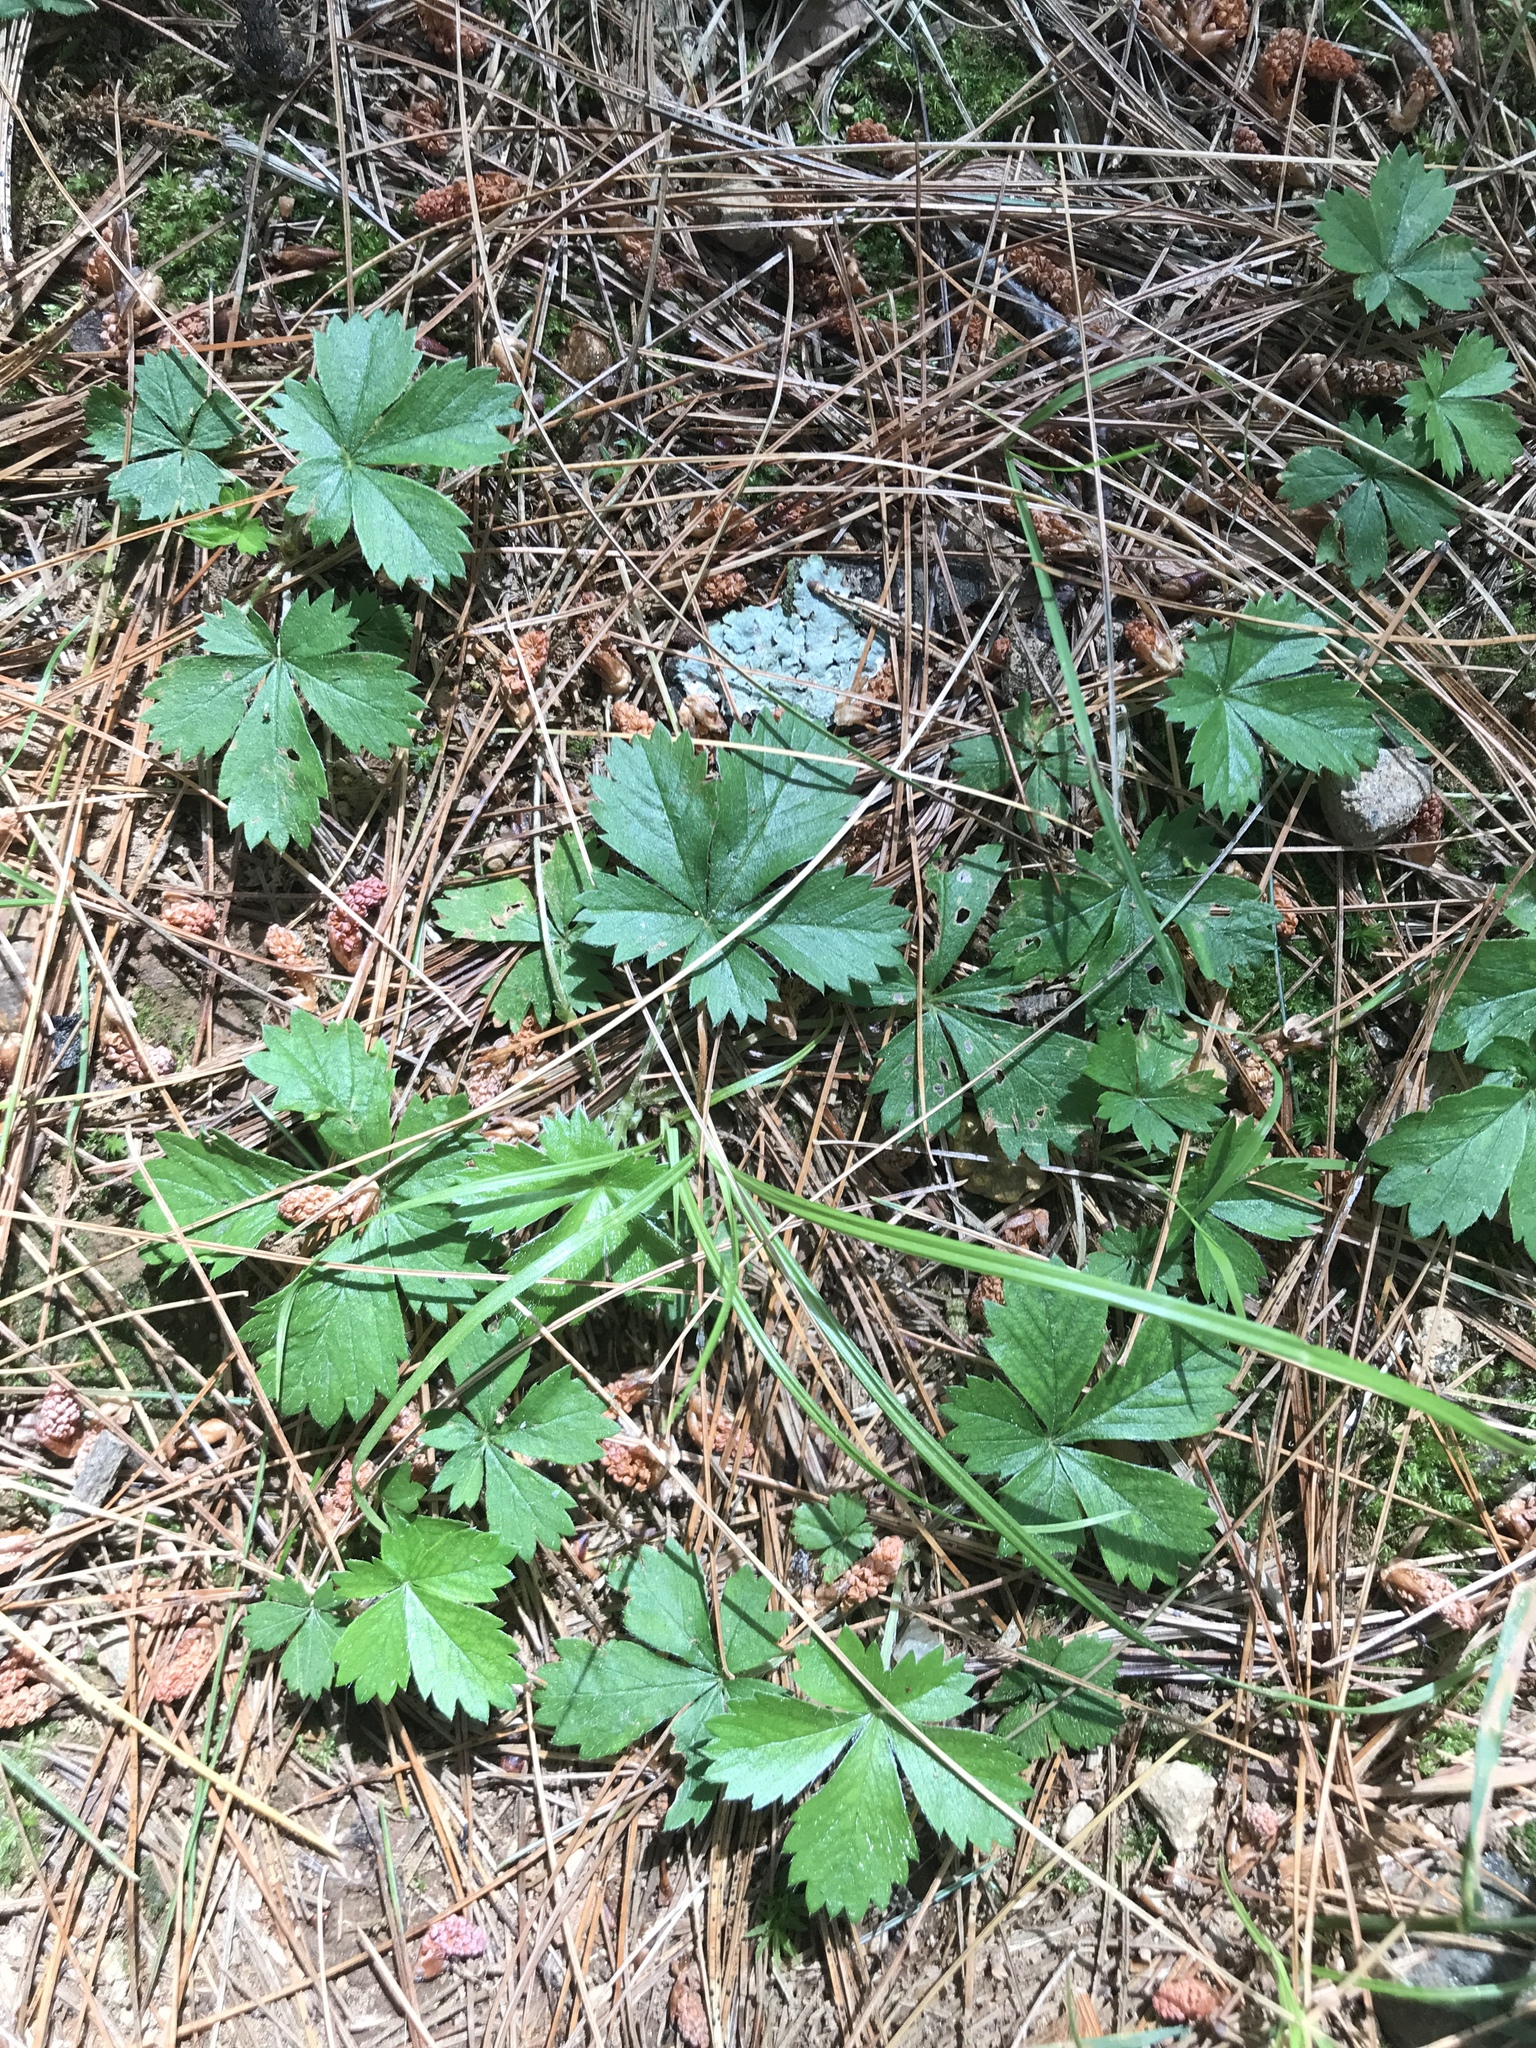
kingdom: Plantae
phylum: Tracheophyta
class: Magnoliopsida
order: Rosales
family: Rosaceae
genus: Potentilla
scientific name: Potentilla canadensis
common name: Canada cinquefoil
